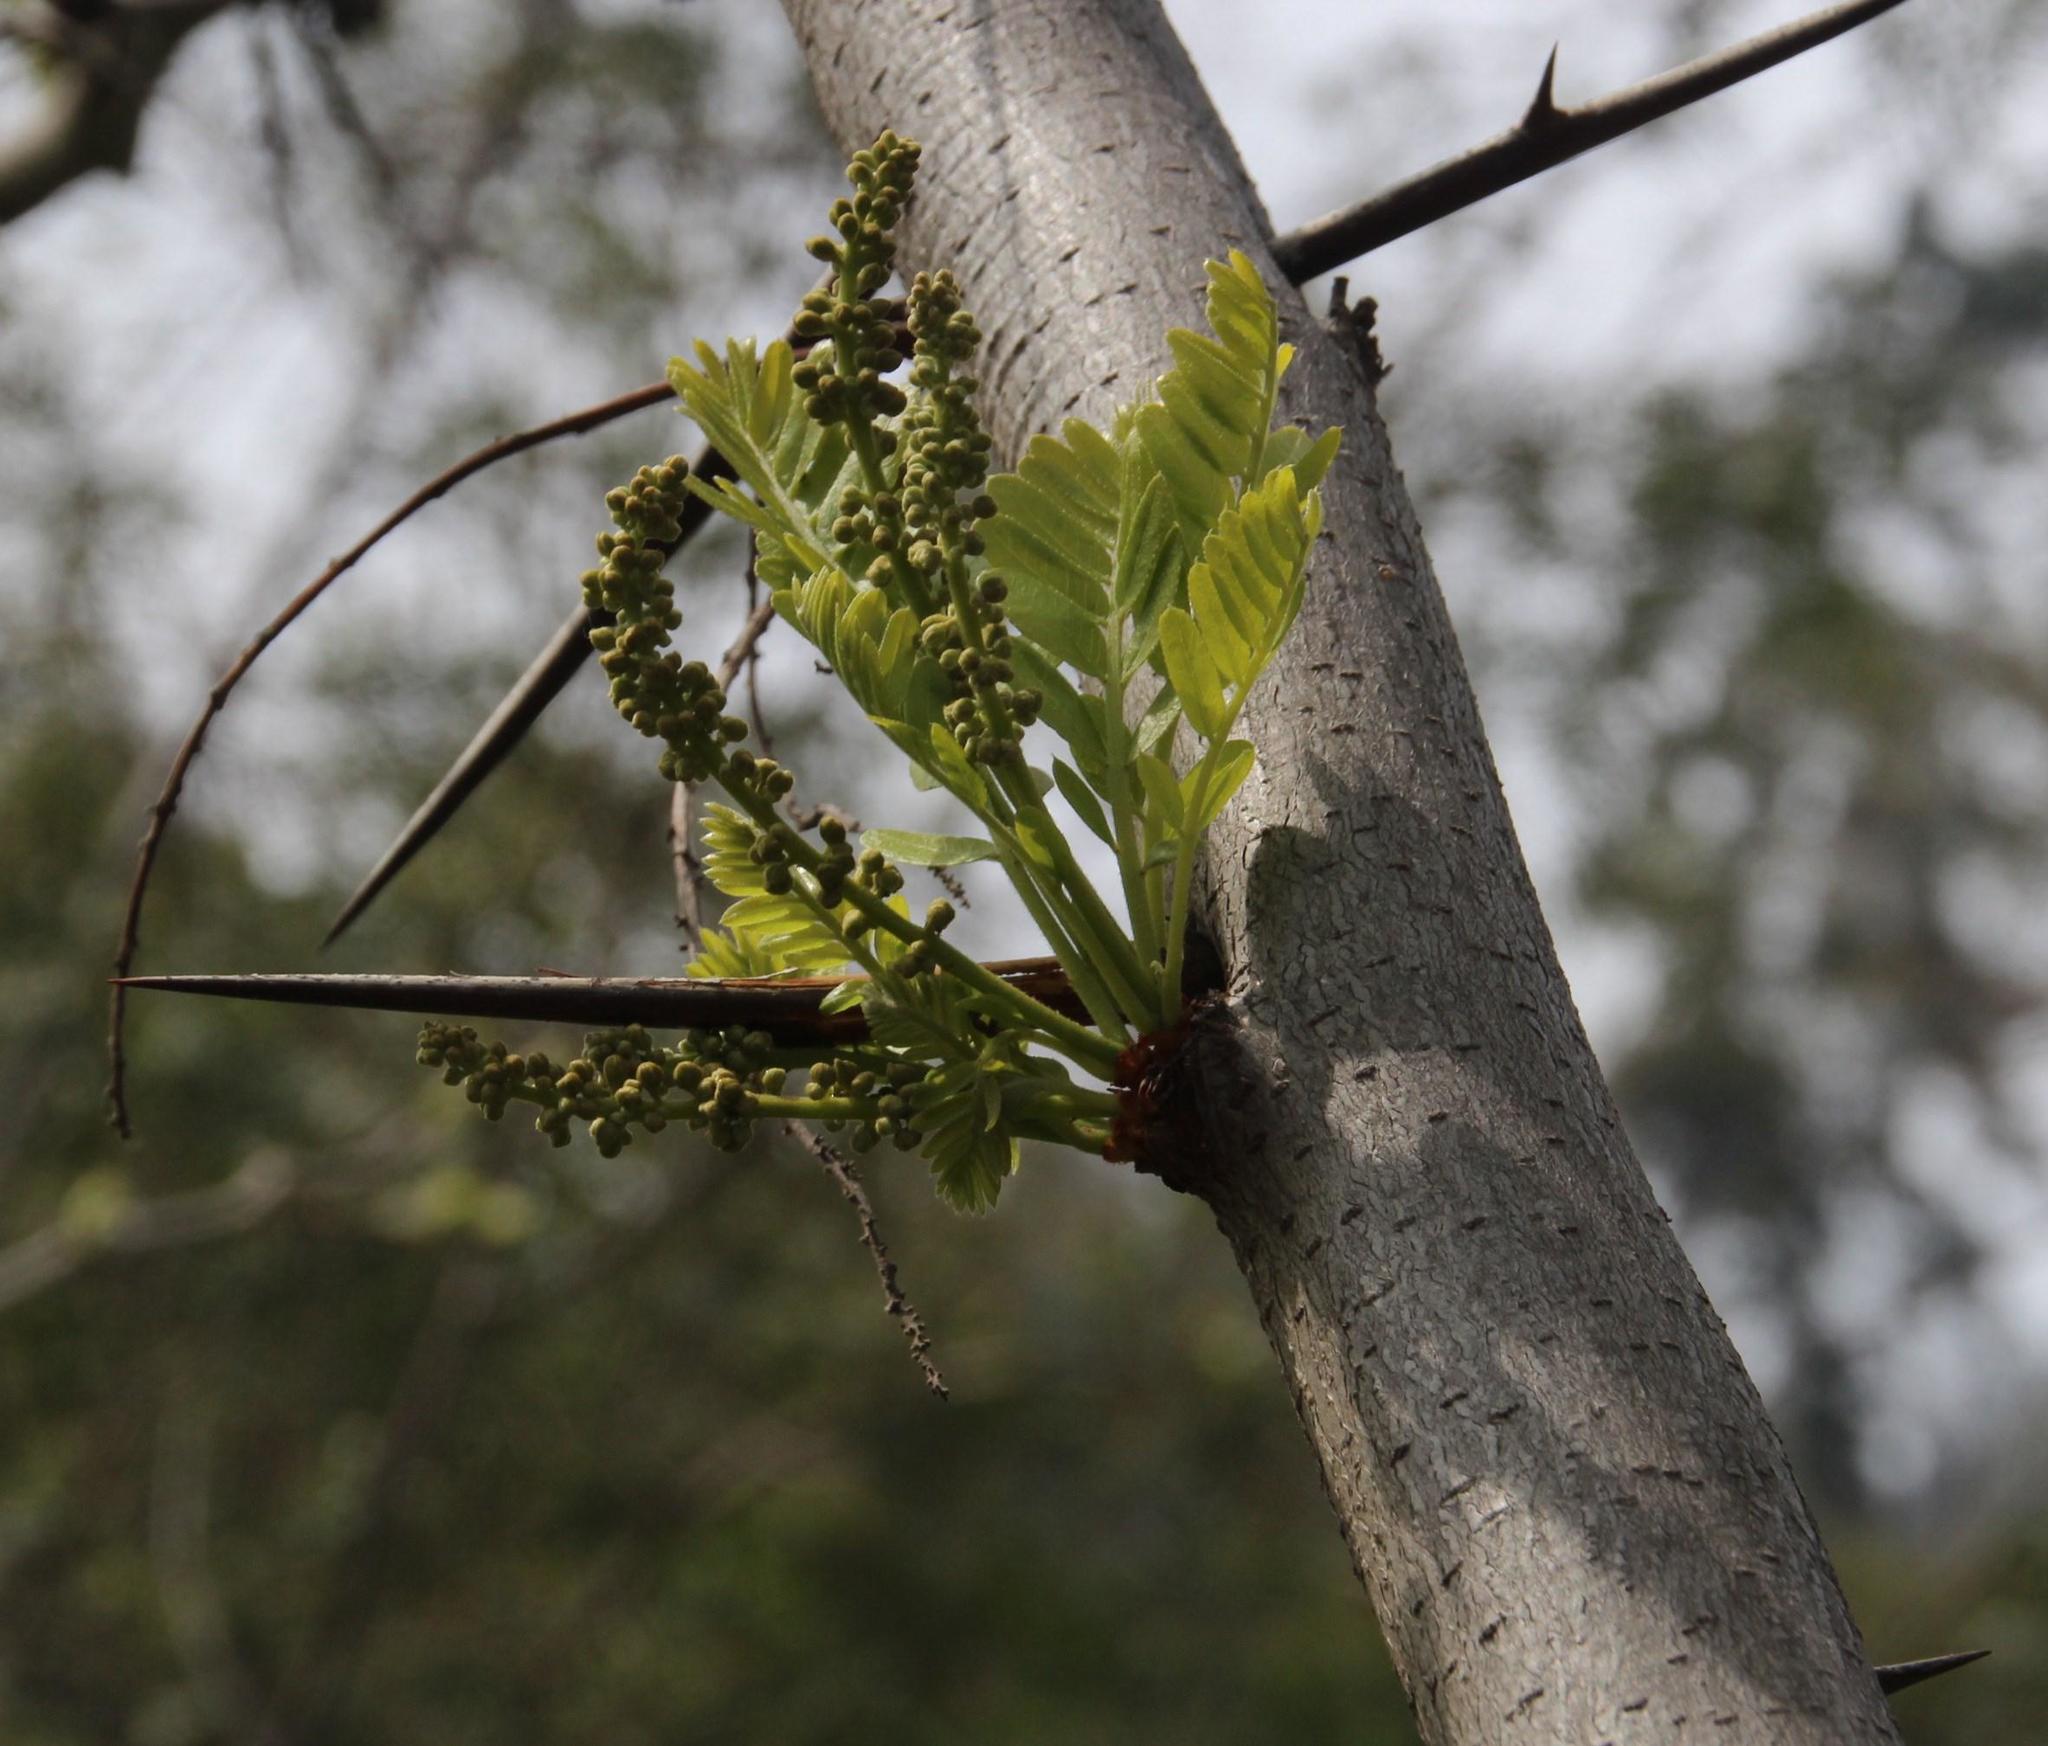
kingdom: Plantae
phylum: Tracheophyta
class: Magnoliopsida
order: Fabales
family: Fabaceae
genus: Gleditsia
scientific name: Gleditsia triacanthos
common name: Common honeylocust
